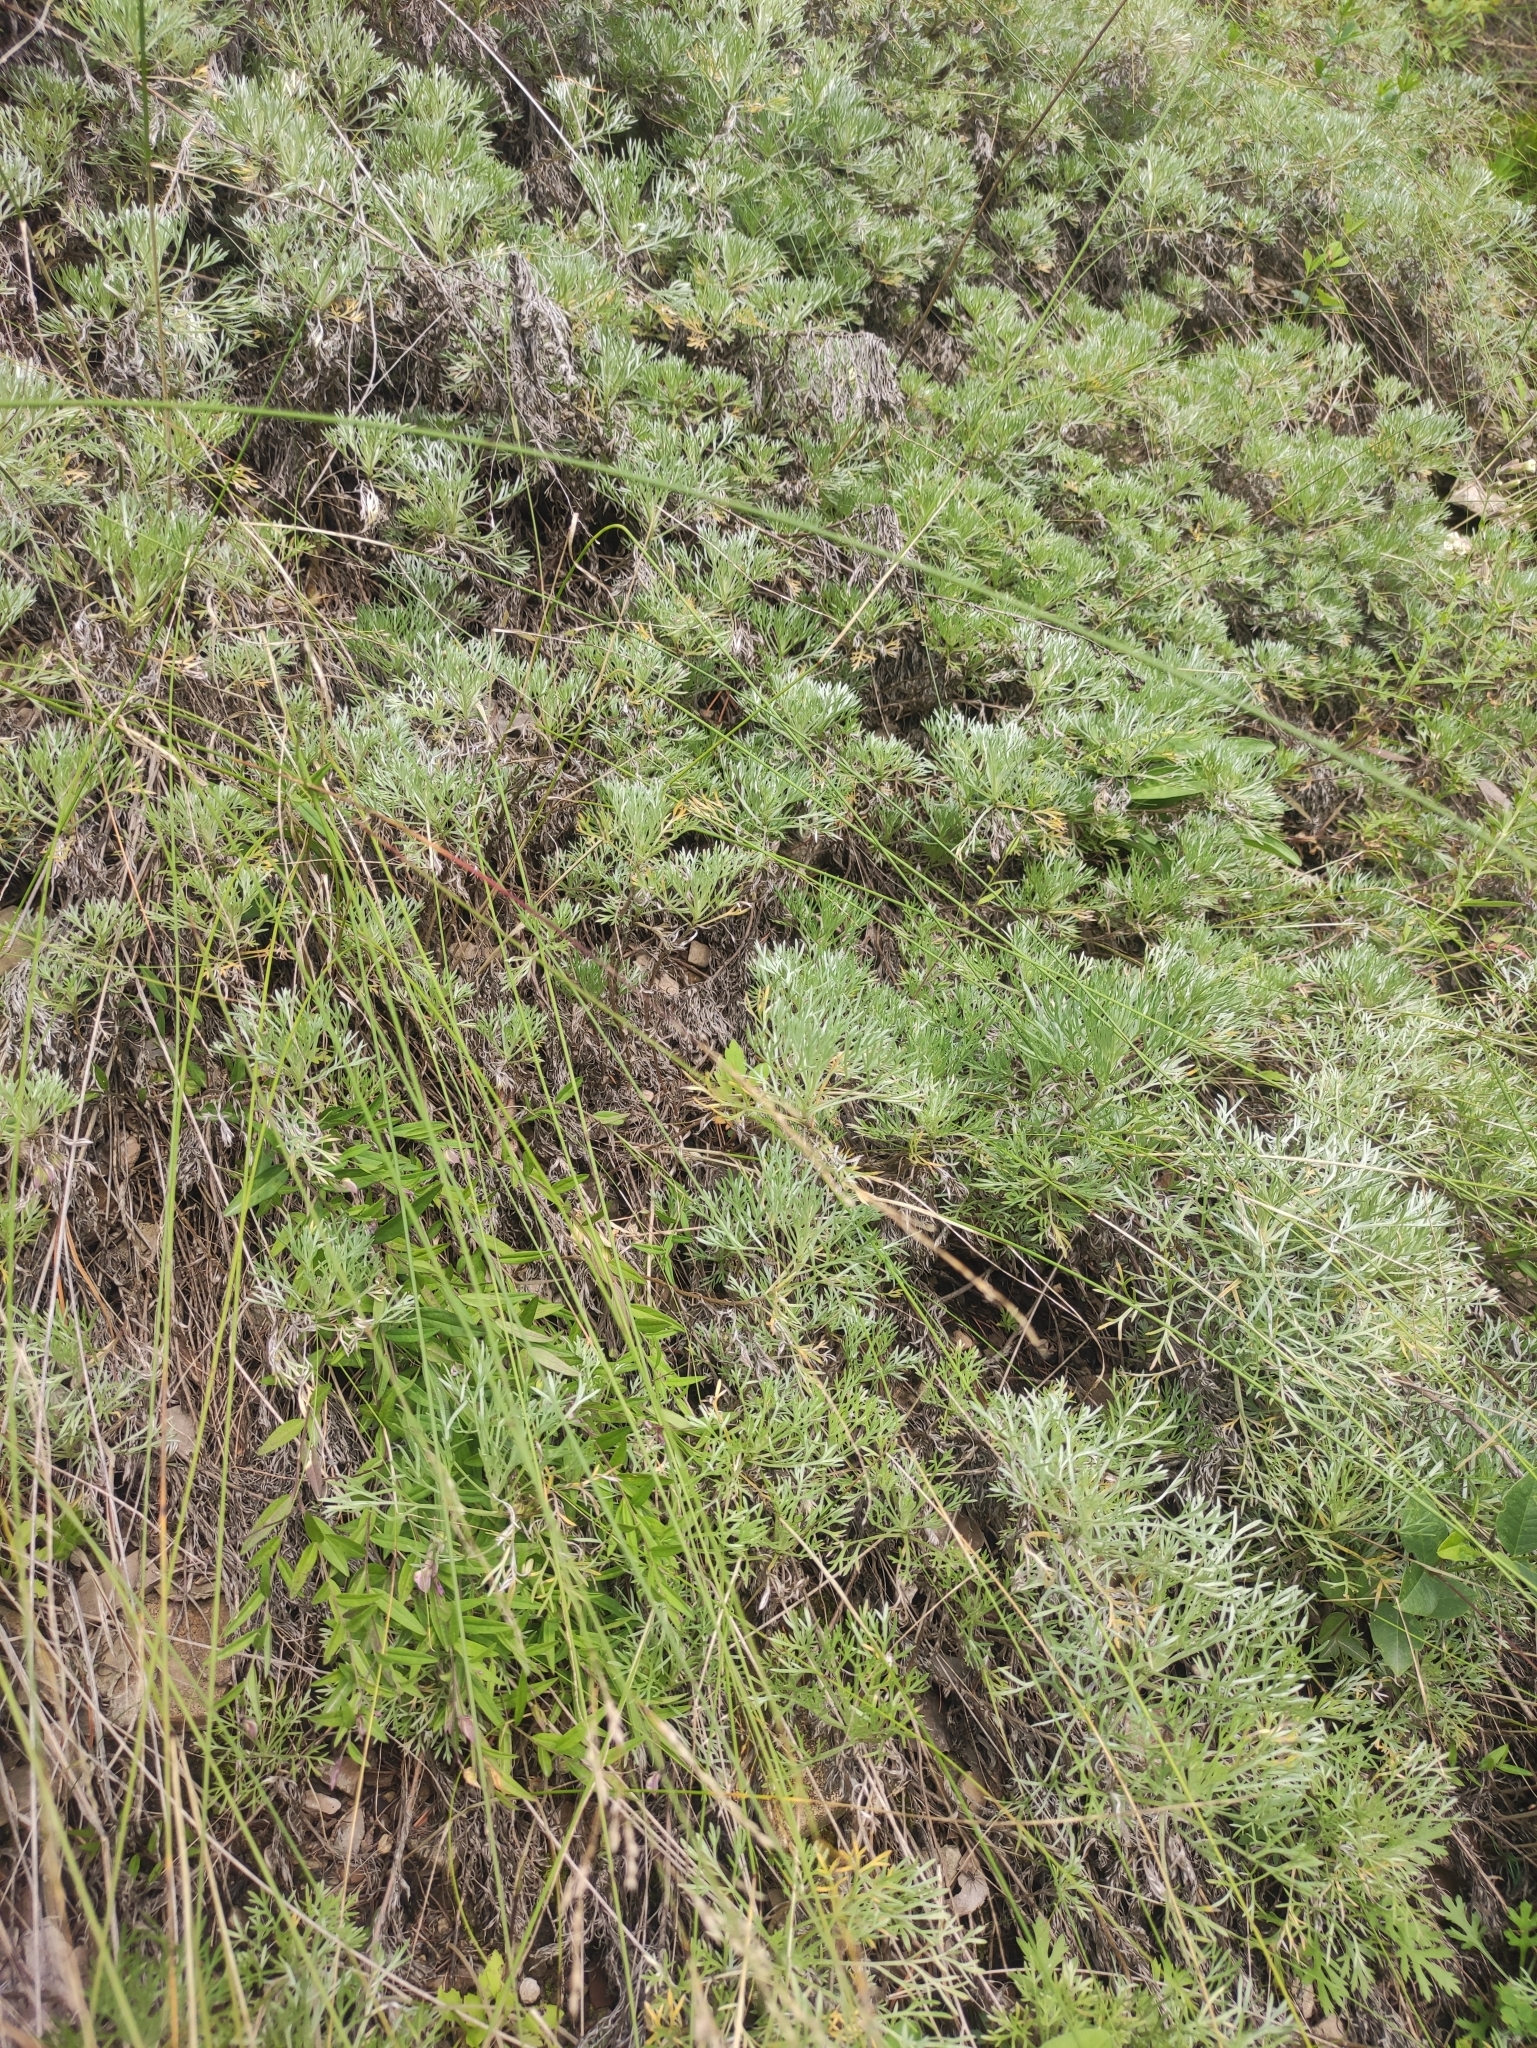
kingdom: Plantae
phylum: Tracheophyta
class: Magnoliopsida
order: Asterales
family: Asteraceae
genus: Artemisia
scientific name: Artemisia sericea
